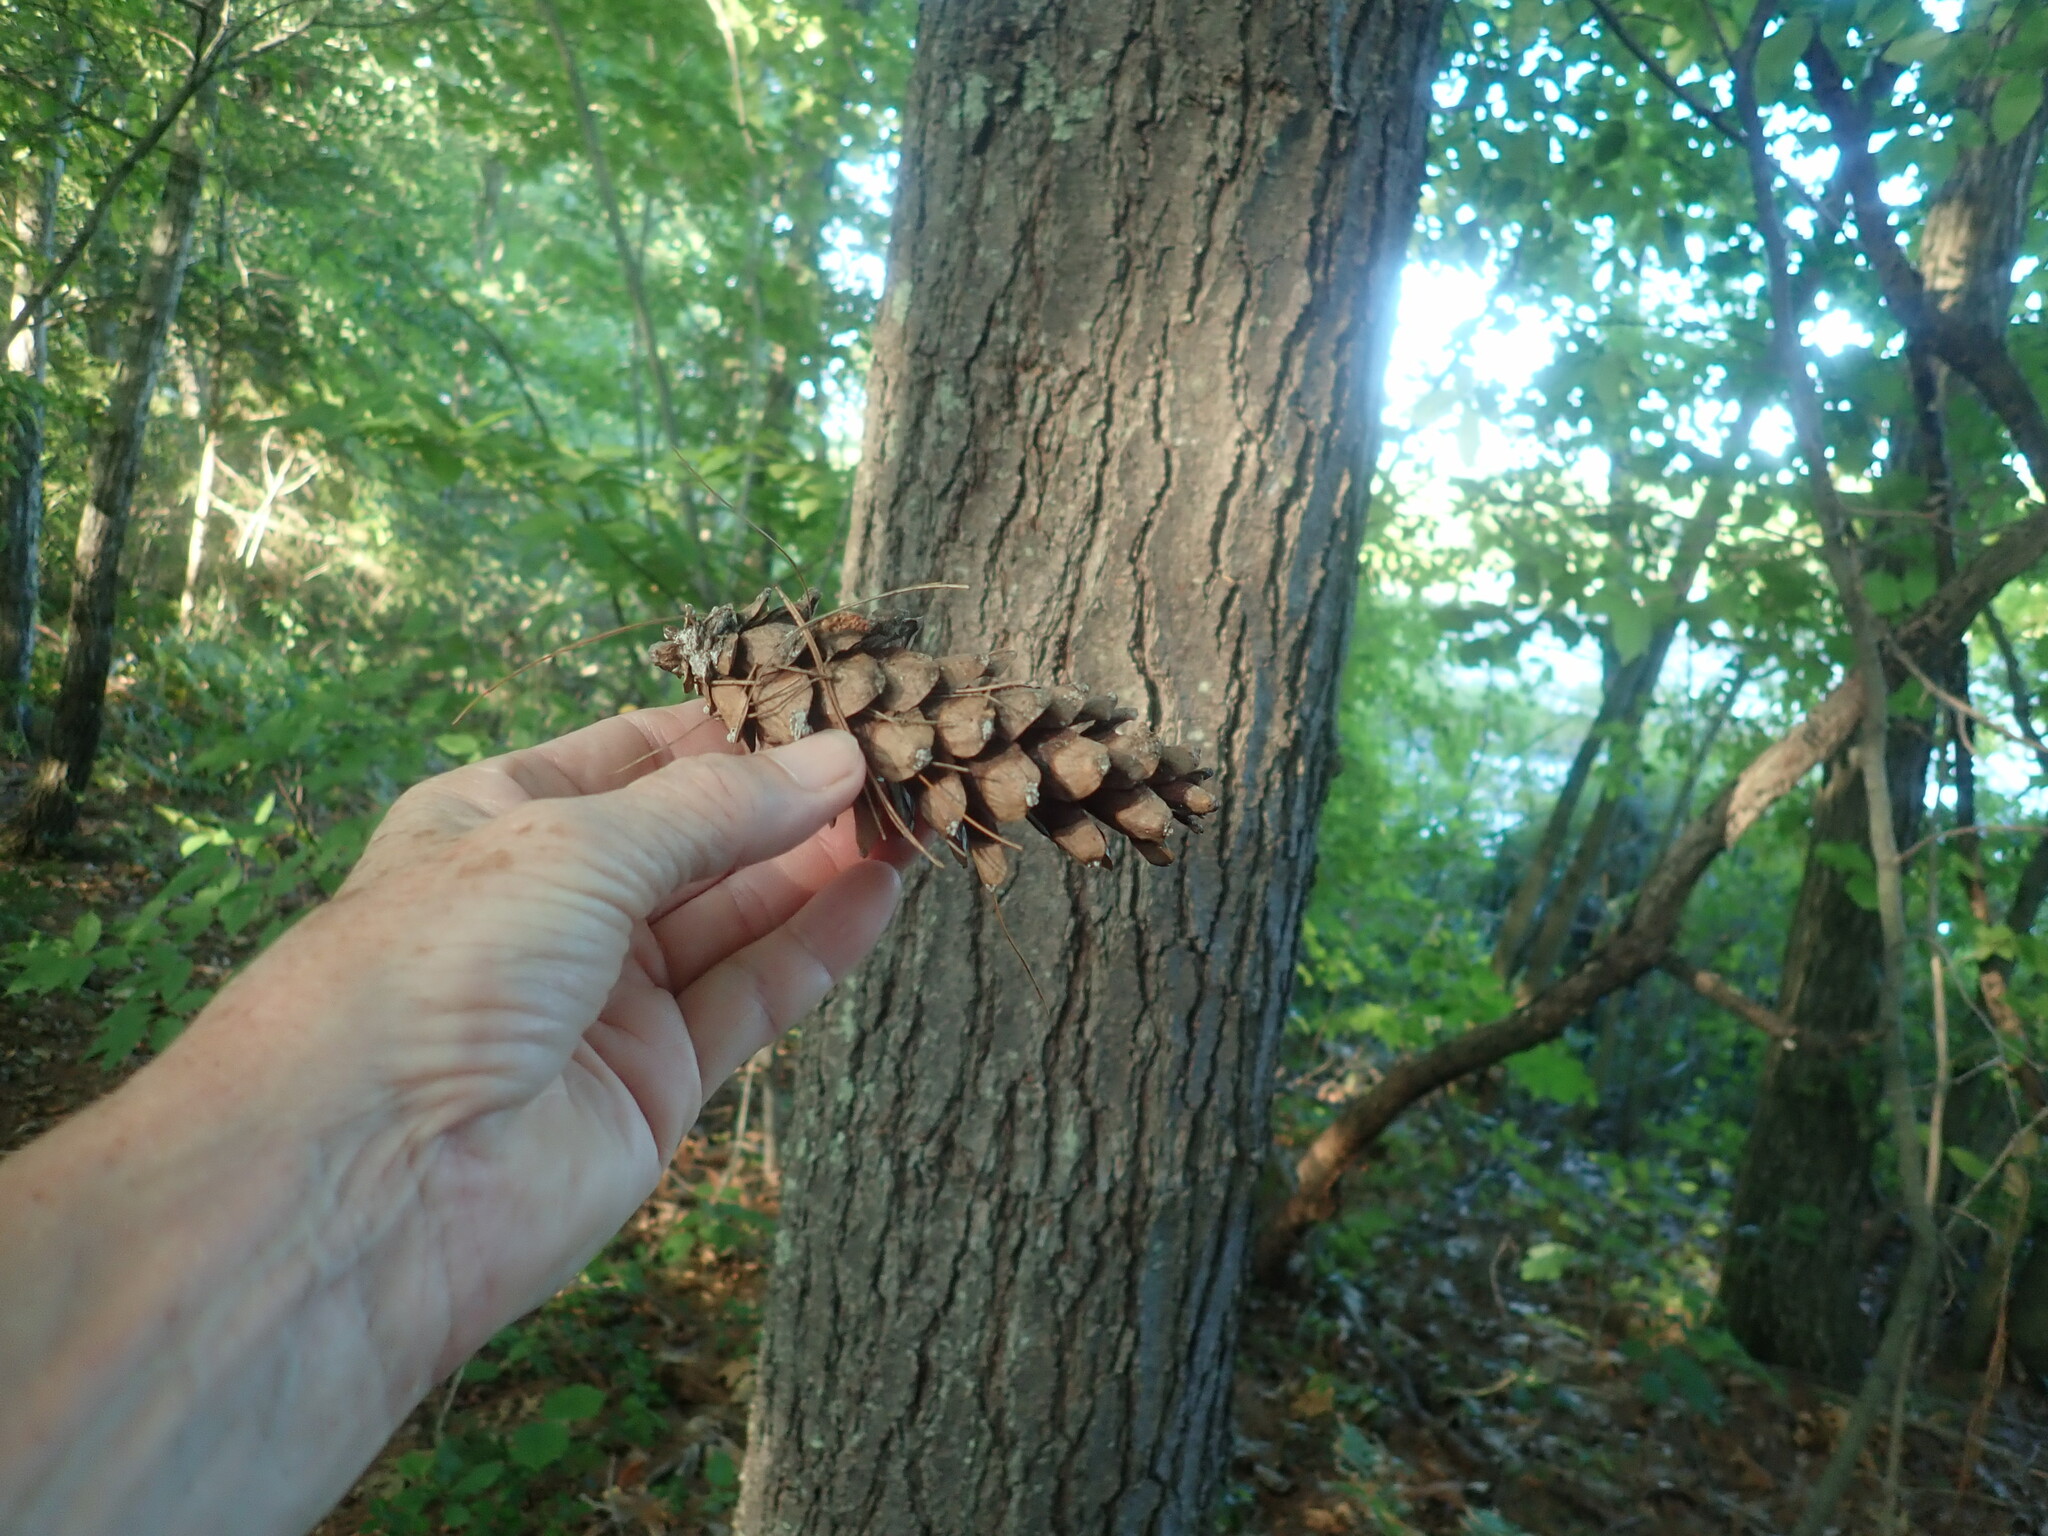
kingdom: Plantae
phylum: Tracheophyta
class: Pinopsida
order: Pinales
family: Pinaceae
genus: Pinus
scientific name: Pinus strobus
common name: Weymouth pine
